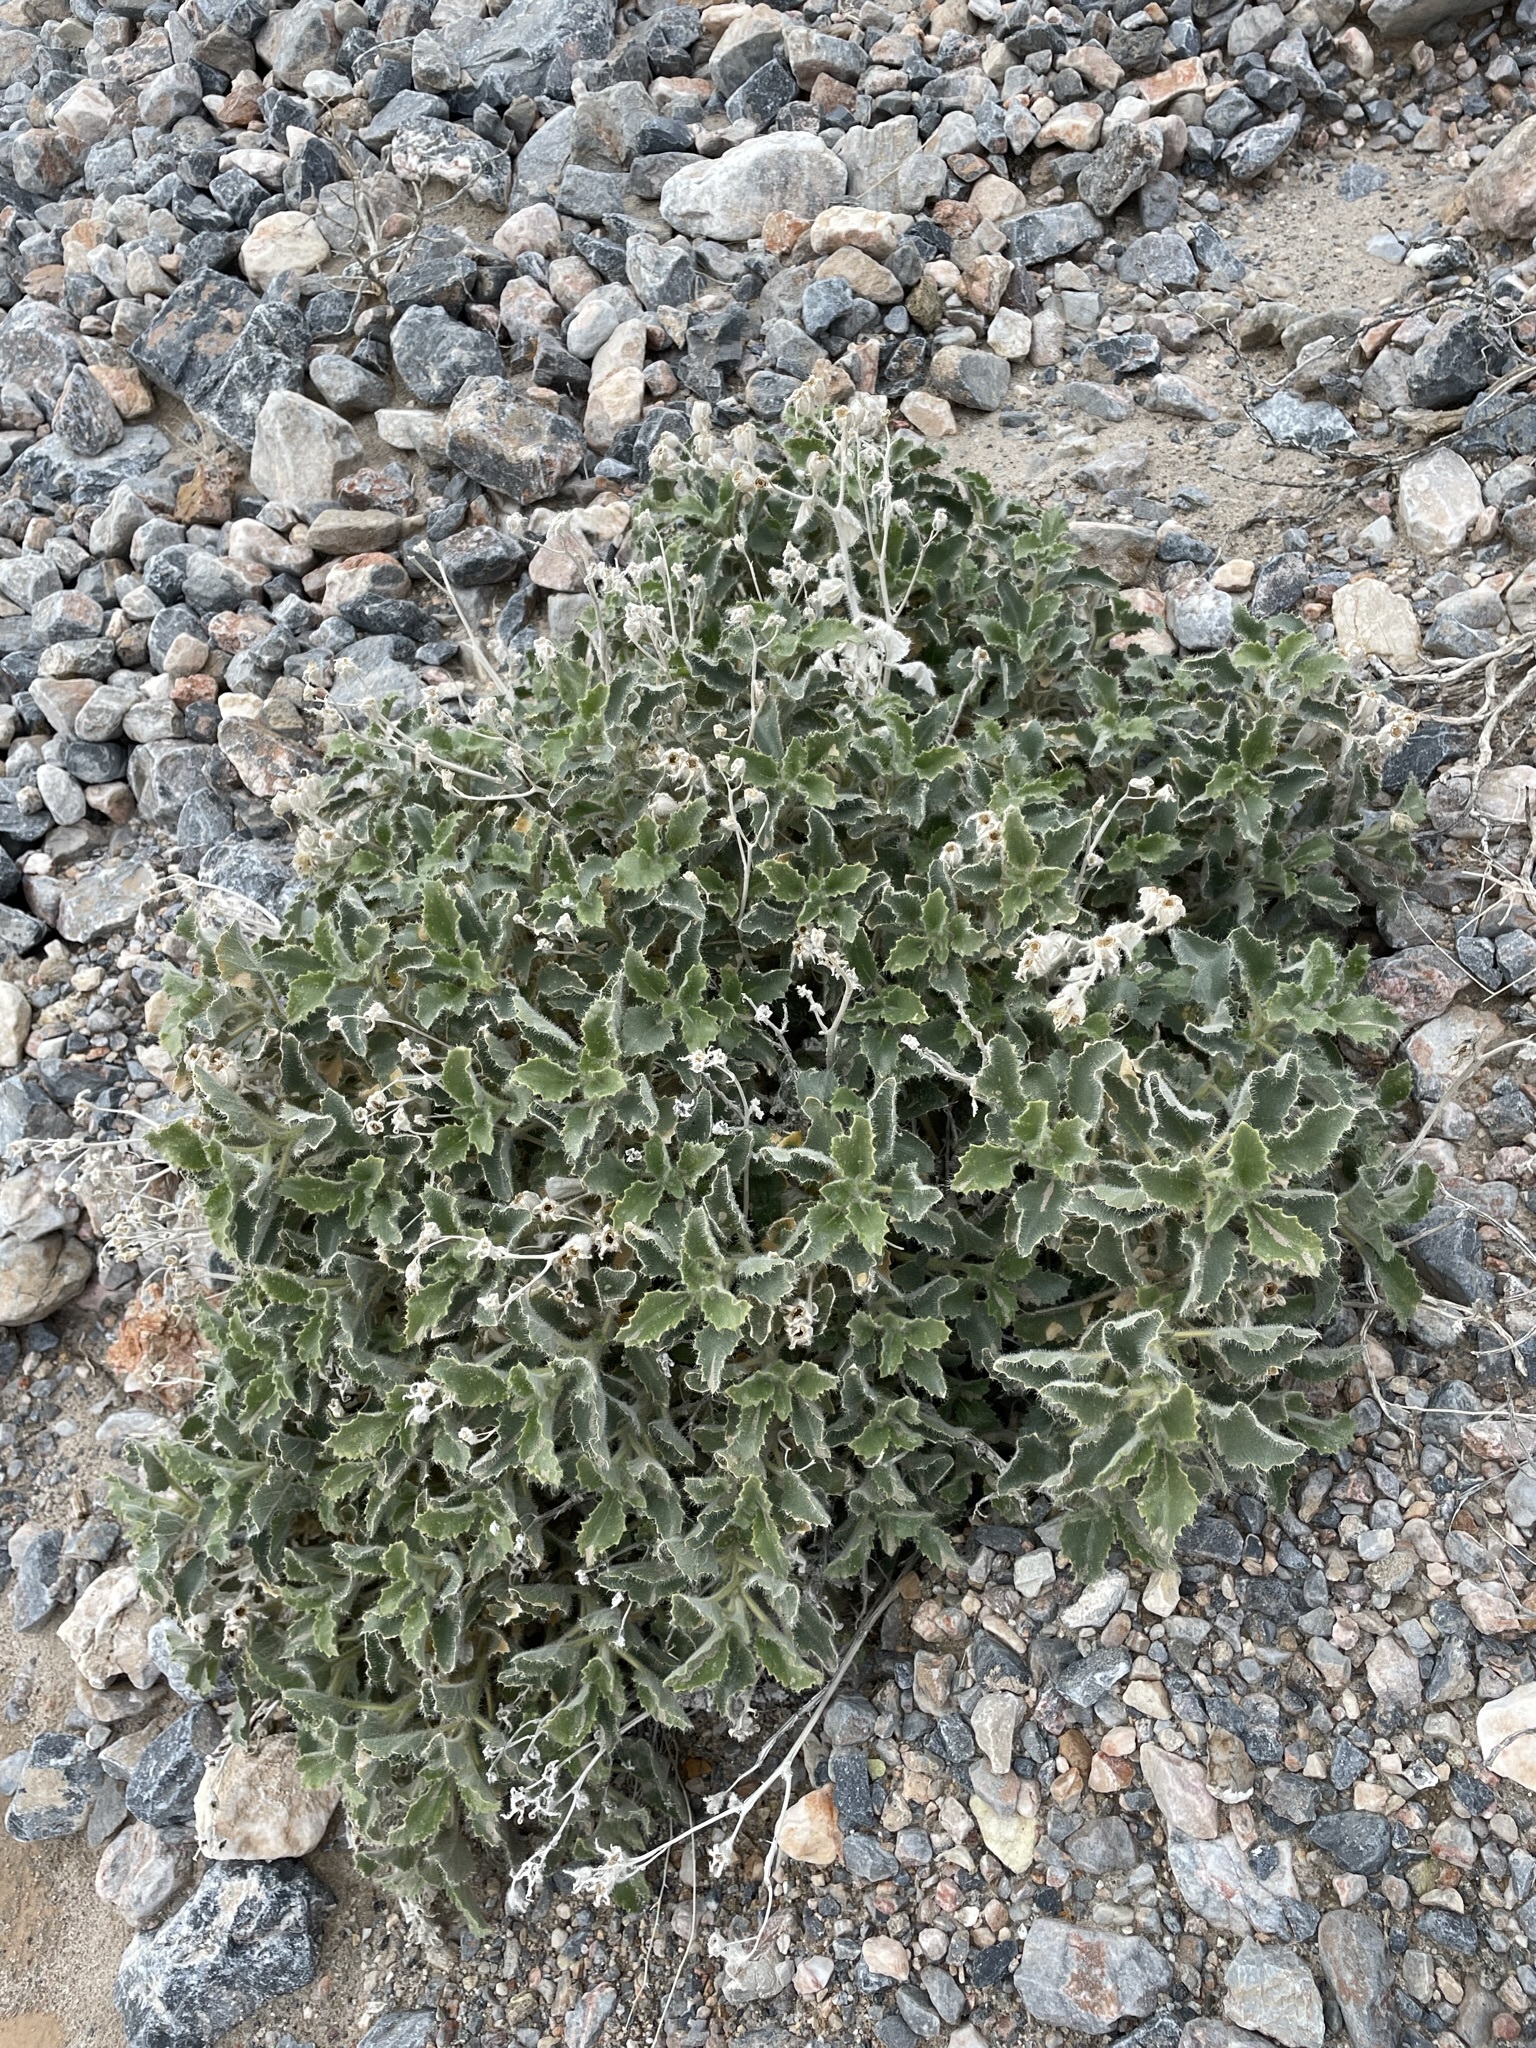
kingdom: Plantae
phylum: Tracheophyta
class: Magnoliopsida
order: Cornales
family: Loasaceae
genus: Eucnide
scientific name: Eucnide urens
